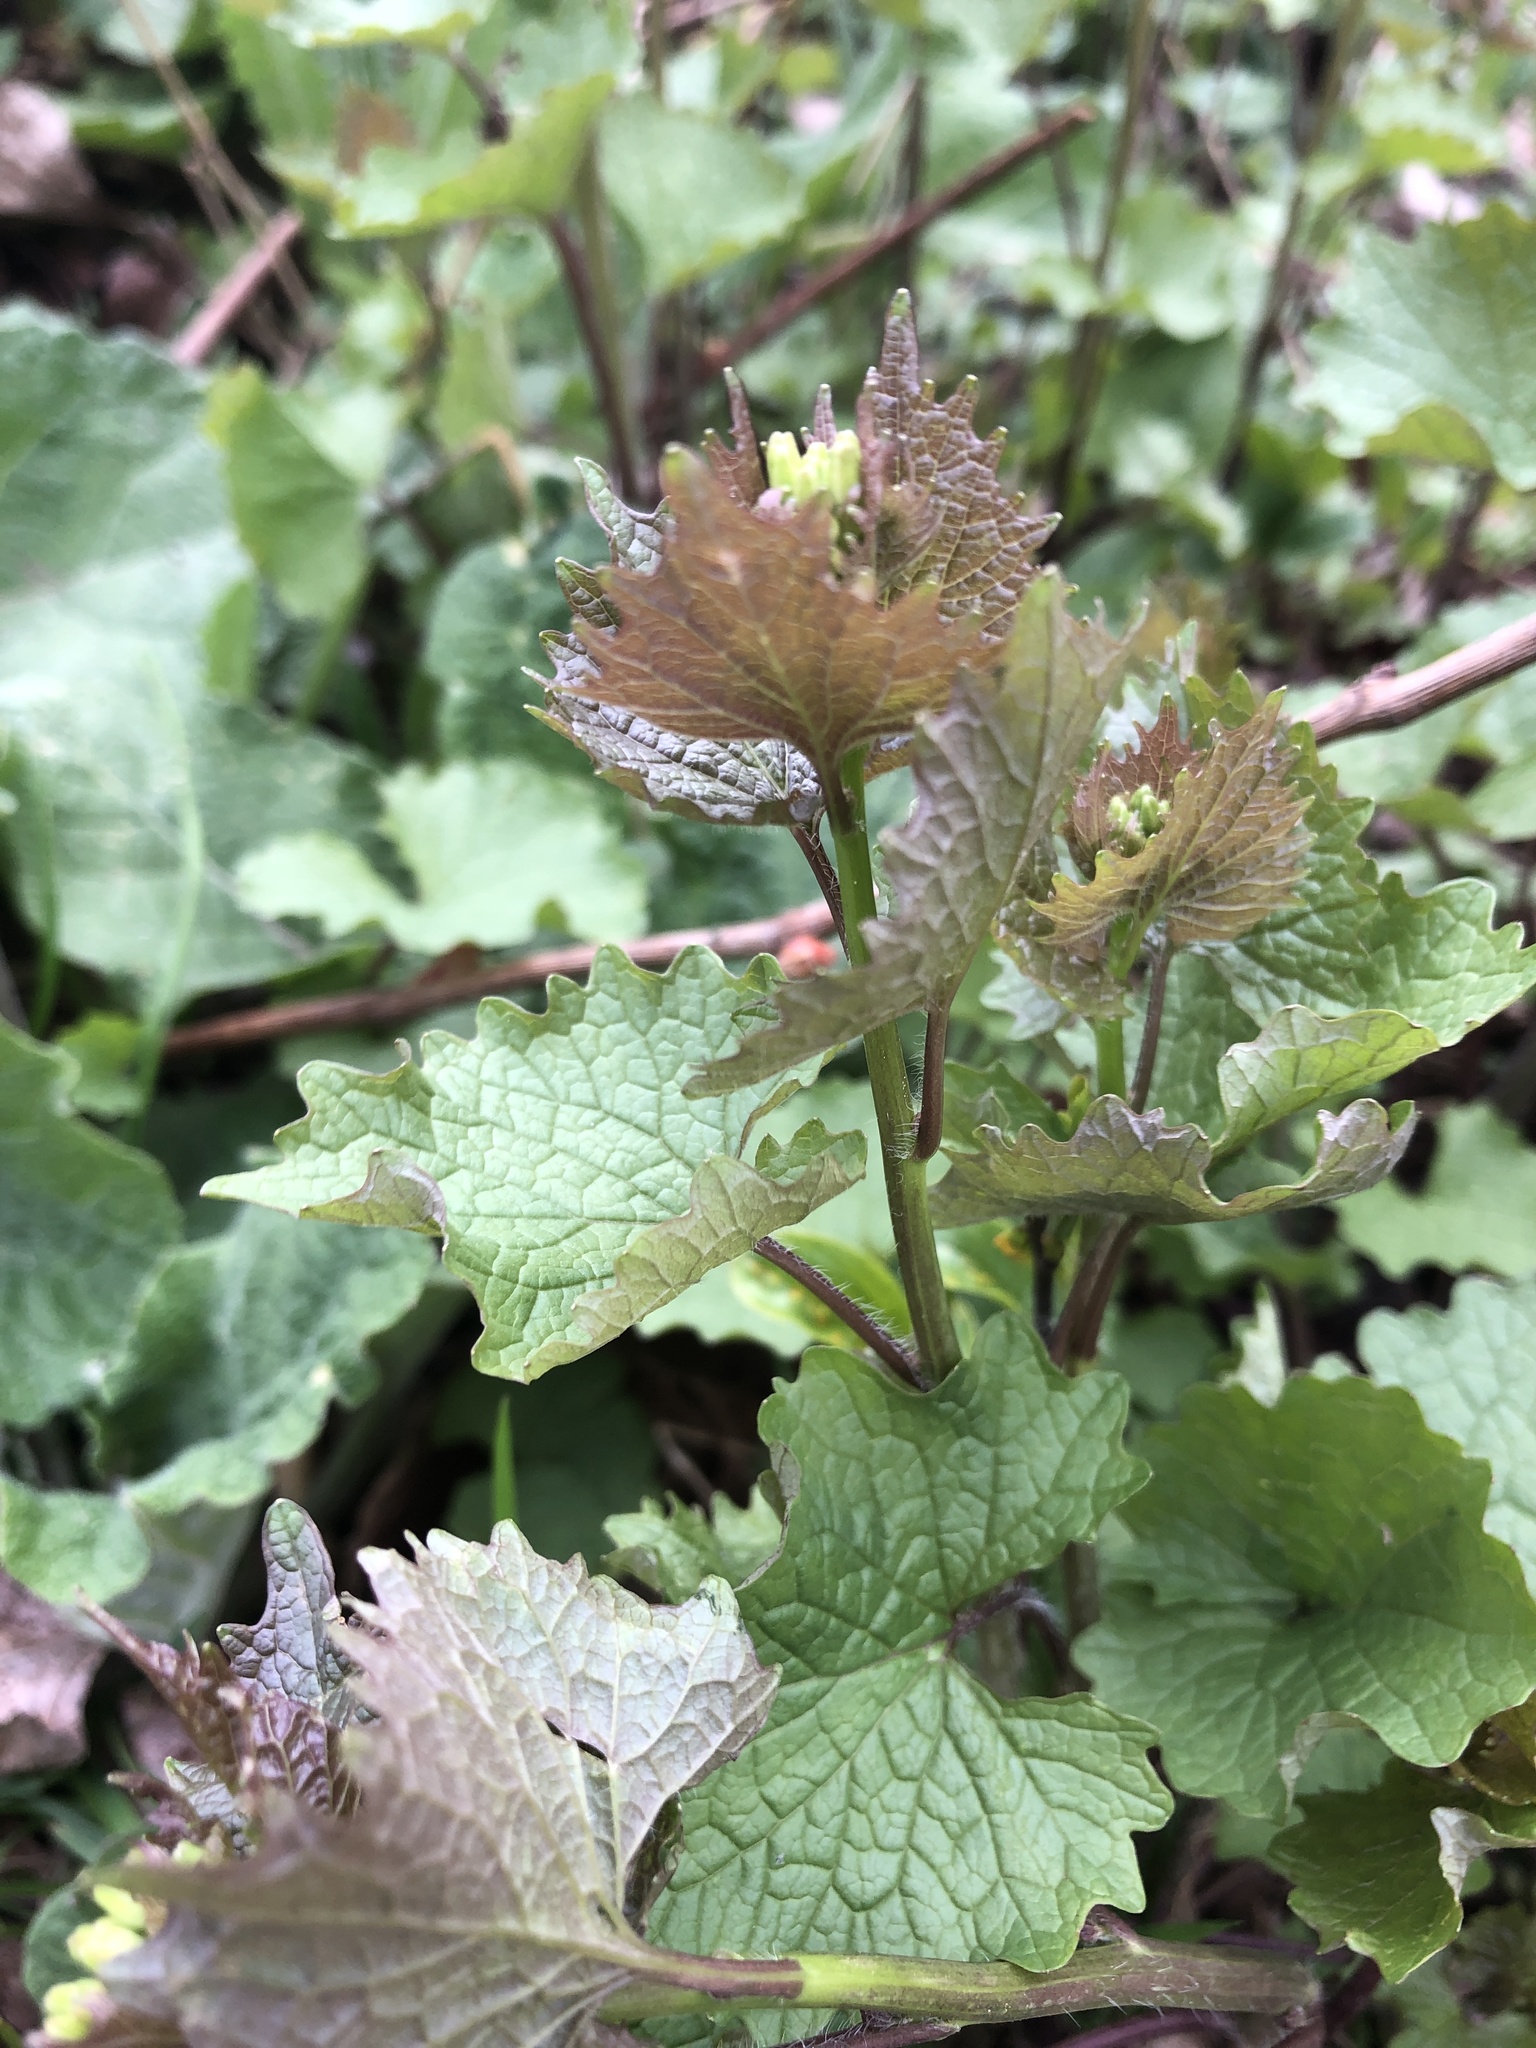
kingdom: Plantae
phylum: Tracheophyta
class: Magnoliopsida
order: Brassicales
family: Brassicaceae
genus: Alliaria
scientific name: Alliaria petiolata
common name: Garlic mustard
